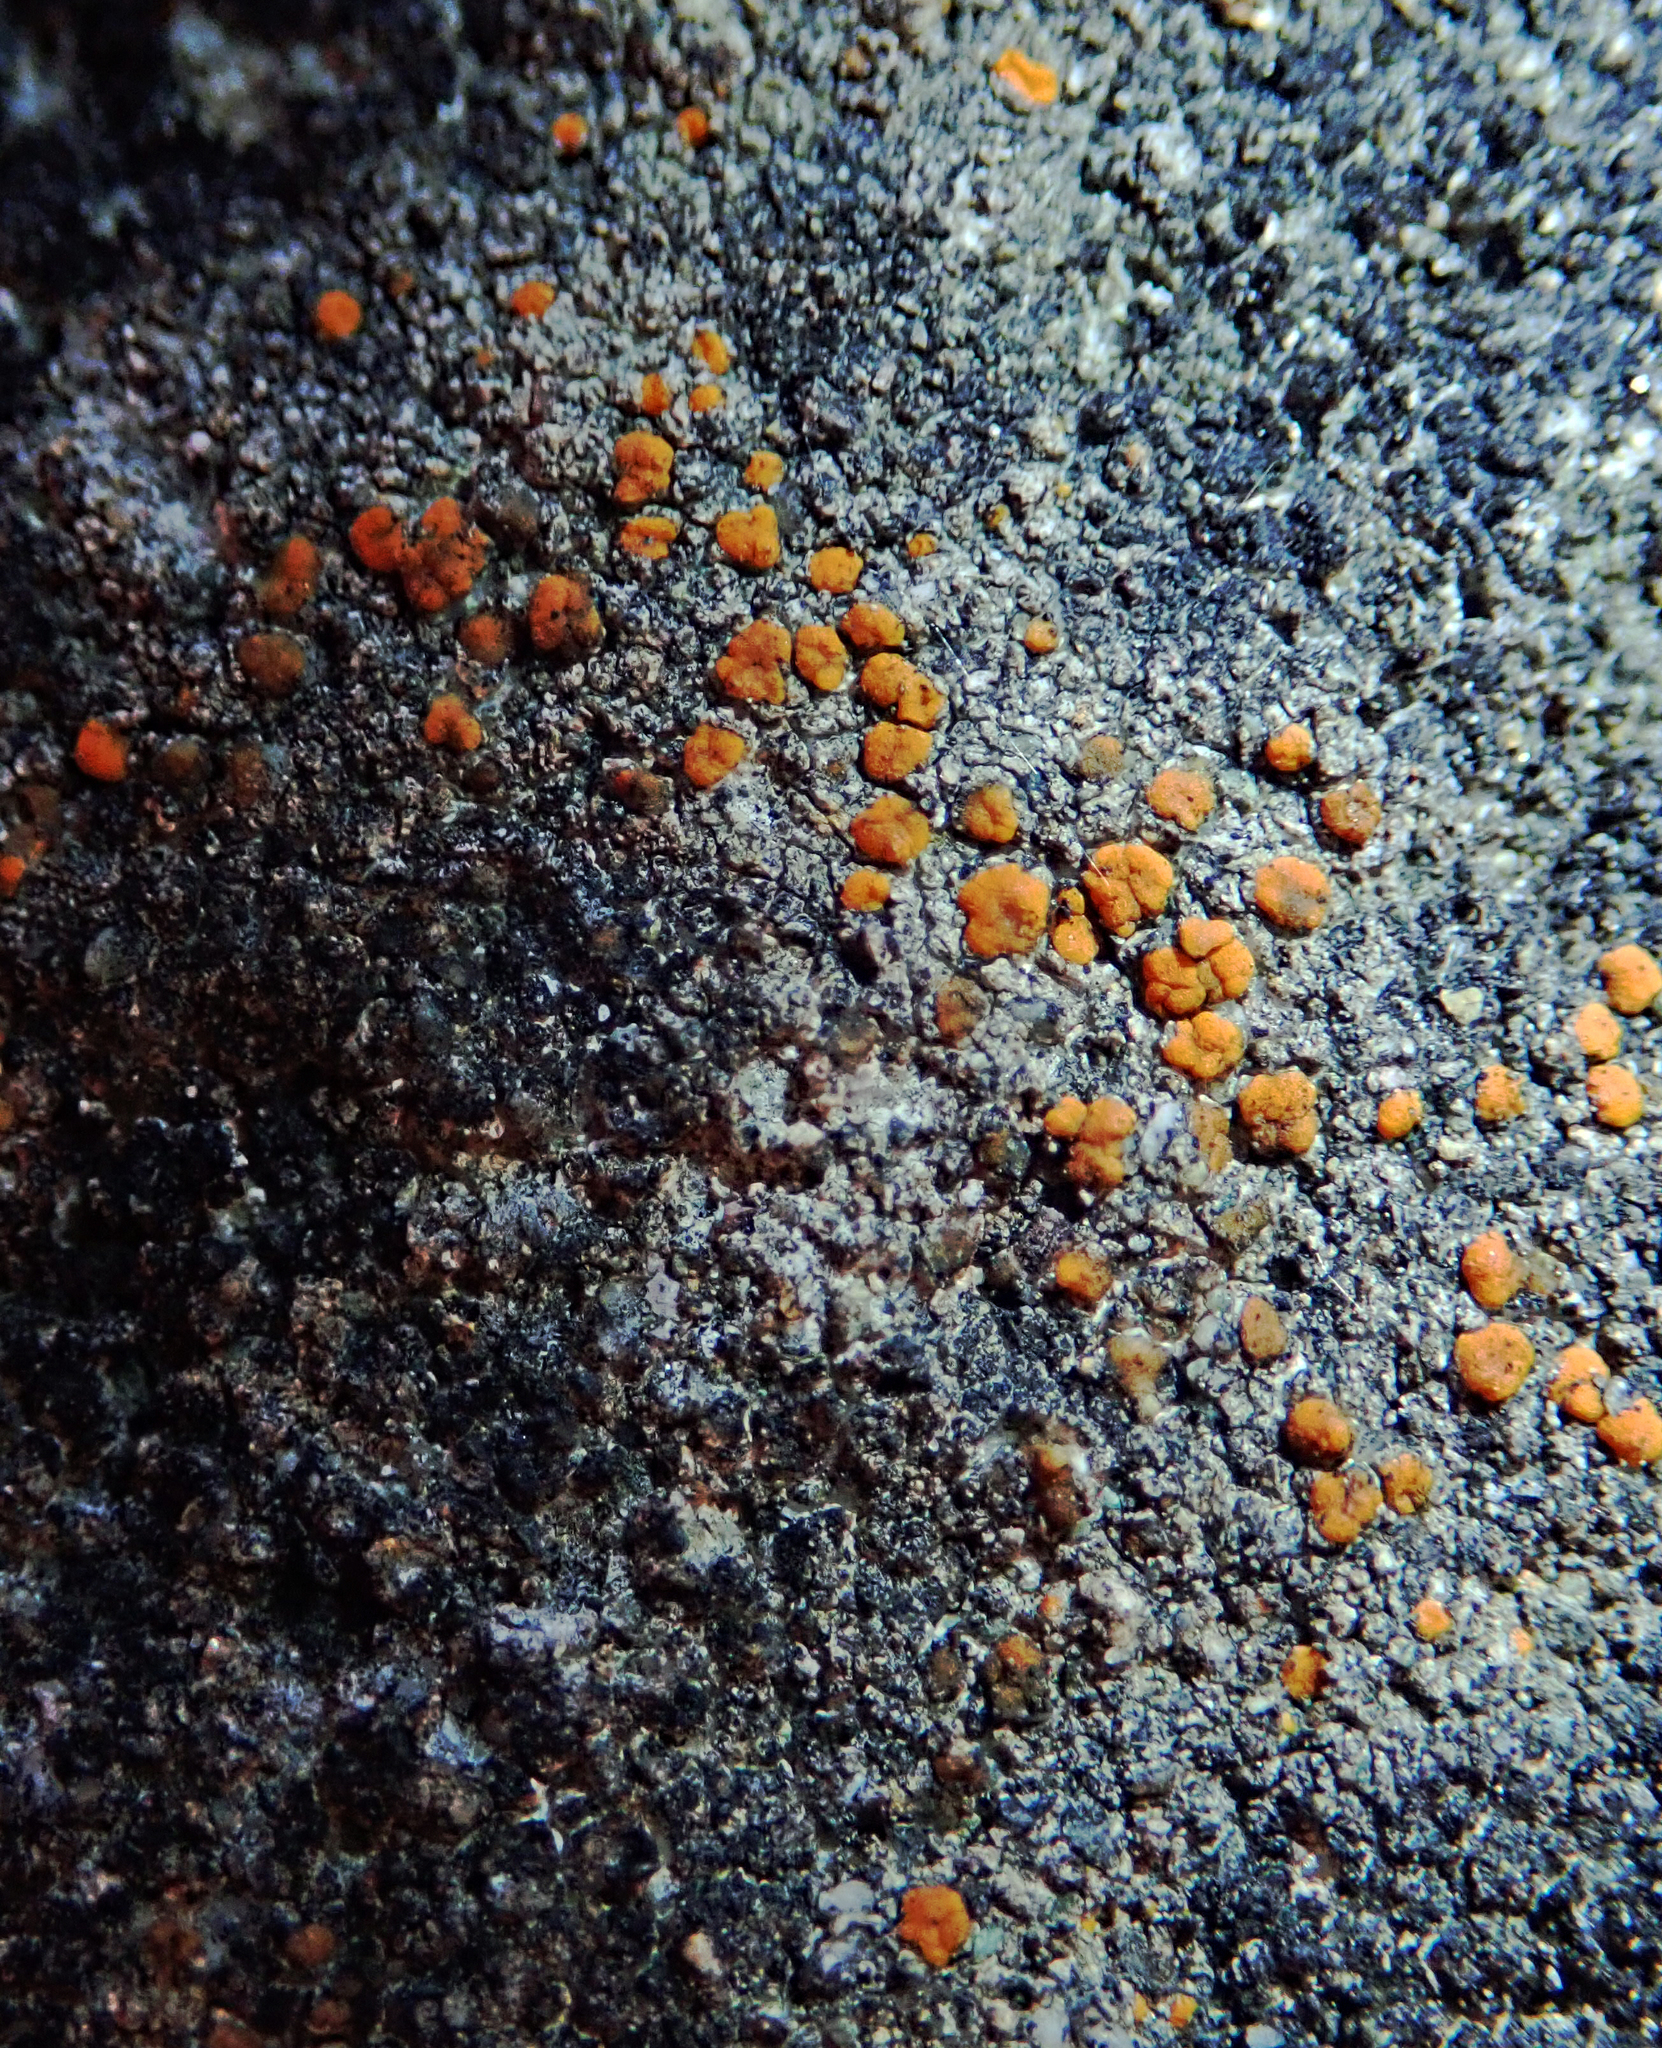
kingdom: Fungi
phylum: Ascomycota
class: Lecanoromycetes
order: Lecanorales
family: Psoraceae
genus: Protoblastenia
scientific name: Protoblastenia rupestris
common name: Chewing gum lichen
